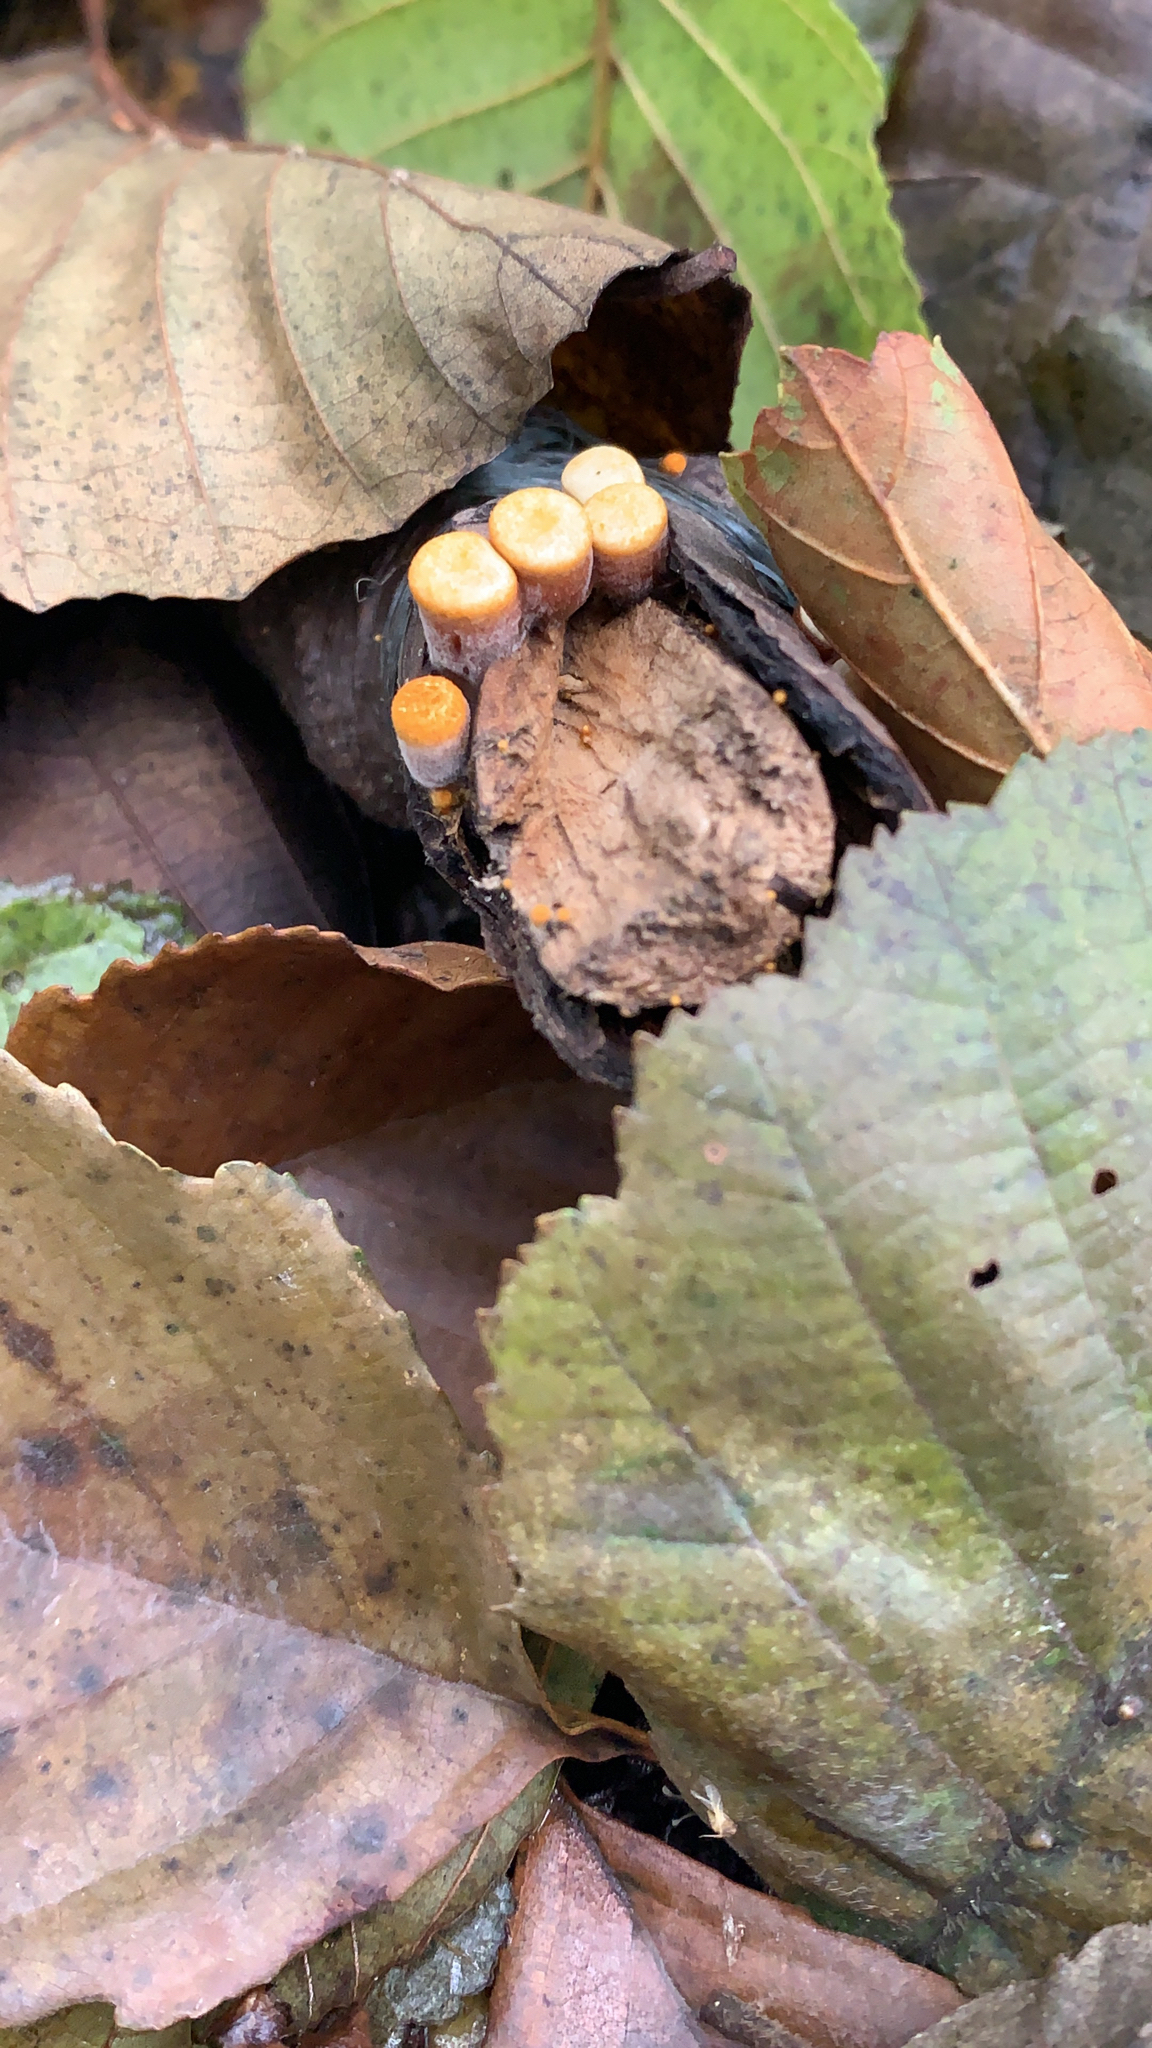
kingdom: Fungi
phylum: Basidiomycota
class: Agaricomycetes
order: Agaricales
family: Nidulariaceae
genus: Crucibulum
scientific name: Crucibulum laeve
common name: Common bird's nest
